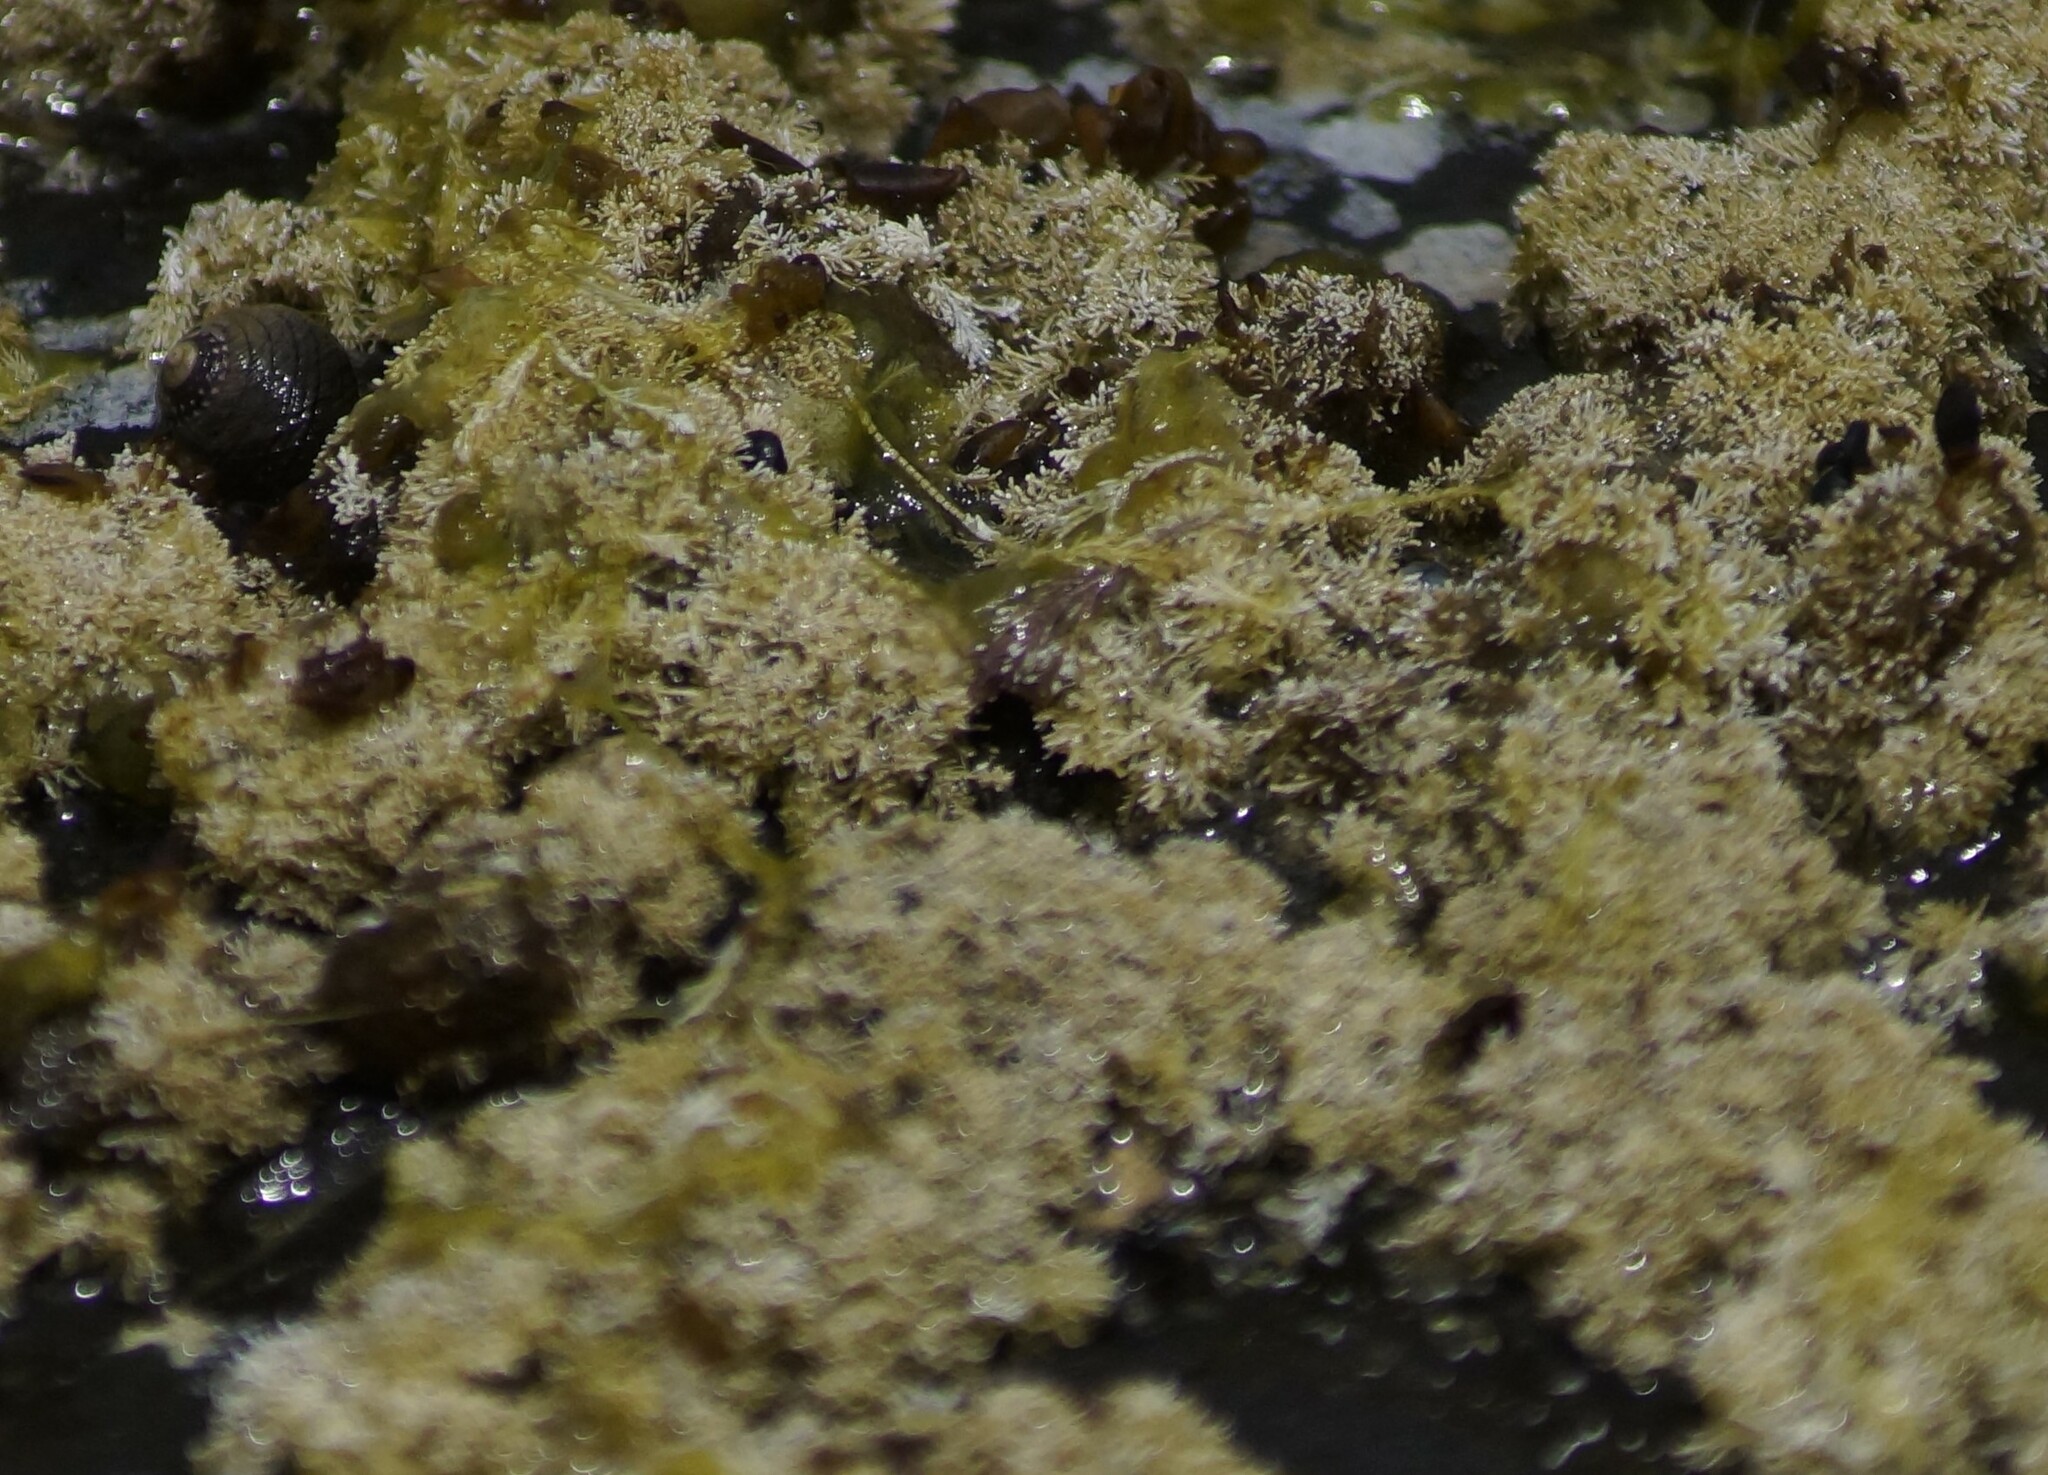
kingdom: Plantae
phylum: Rhodophyta
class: Florideophyceae
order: Corallinales
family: Corallinaceae
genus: Corallina
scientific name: Corallina officinalis
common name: Coral weed
